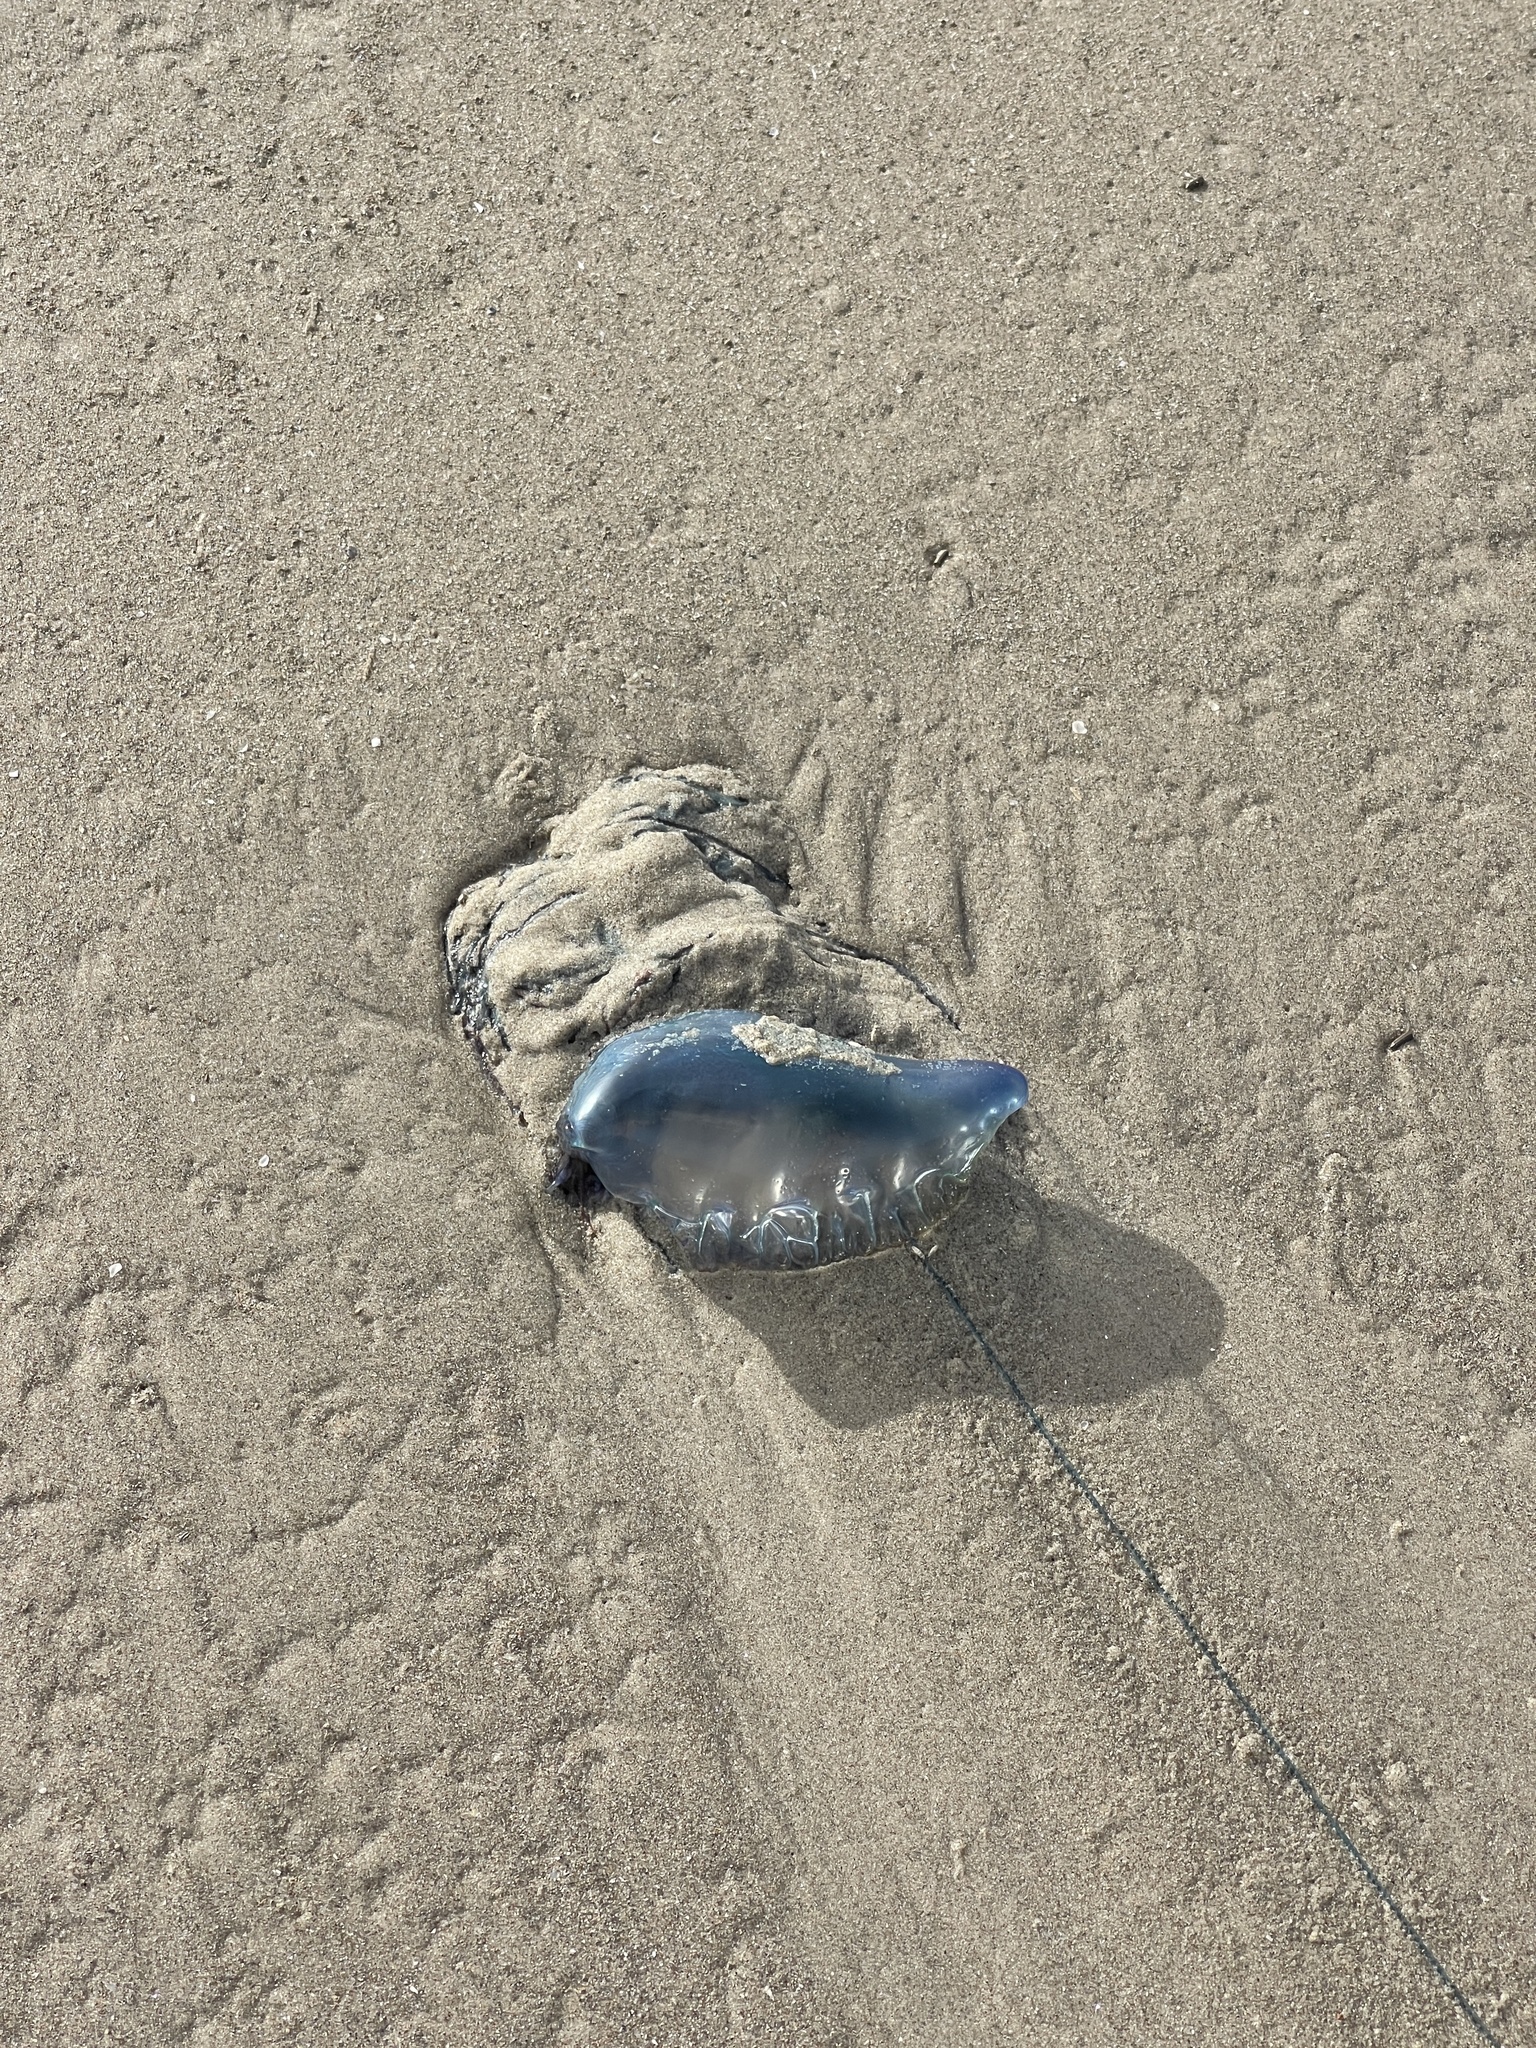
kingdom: Animalia
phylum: Cnidaria
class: Hydrozoa
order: Siphonophorae
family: Physaliidae
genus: Physalia
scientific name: Physalia physalis
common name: Portuguese man-of-war
